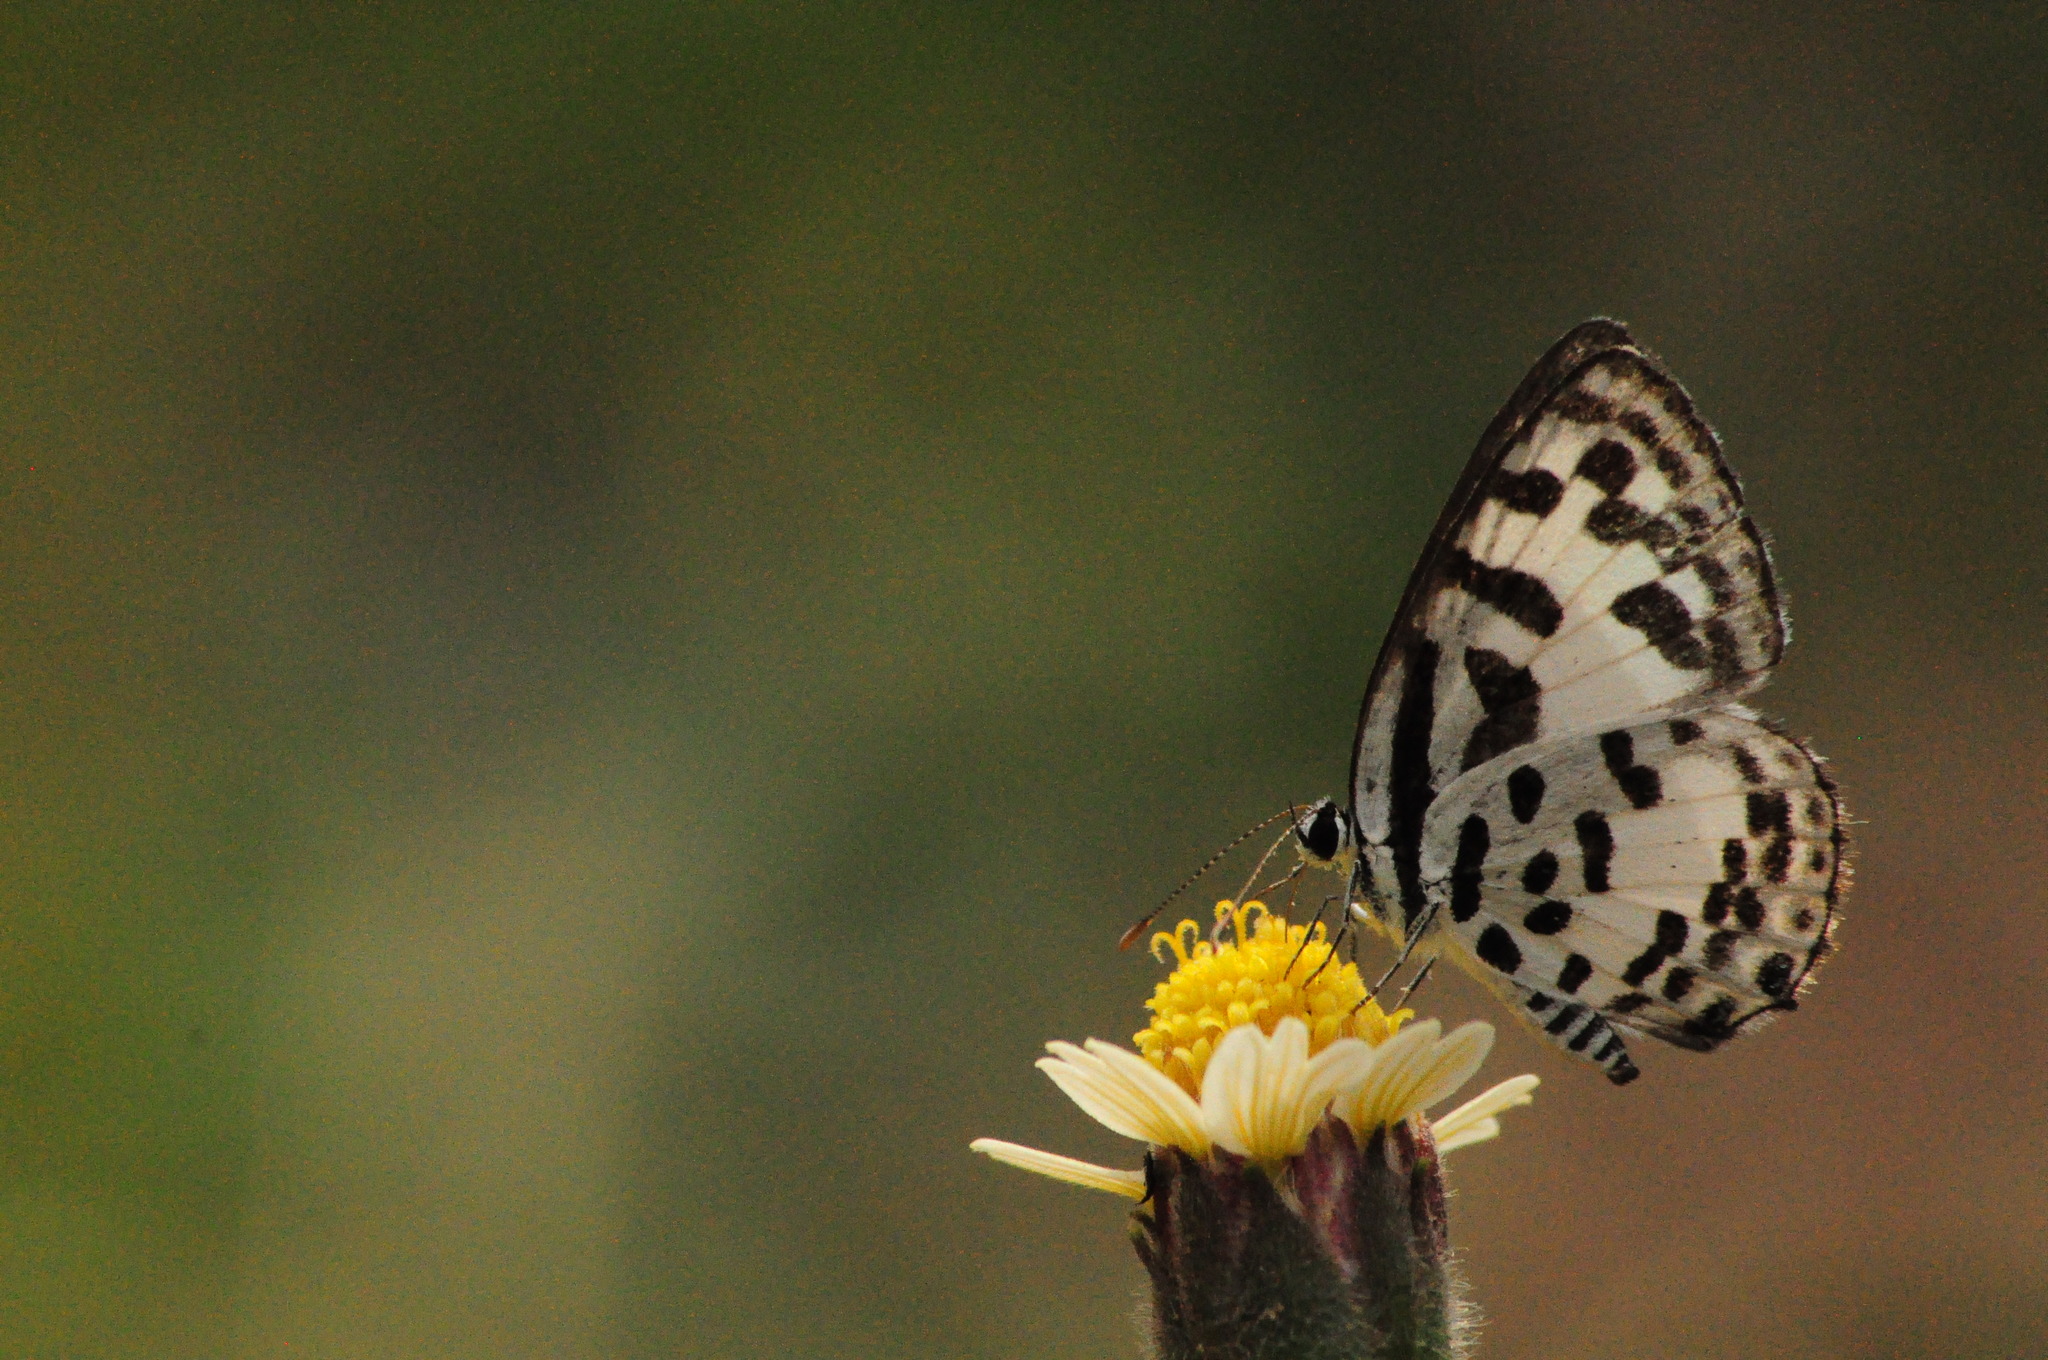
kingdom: Animalia
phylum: Arthropoda
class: Insecta
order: Lepidoptera
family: Lycaenidae
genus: Castalius
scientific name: Castalius rosimon
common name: Common pierrot
